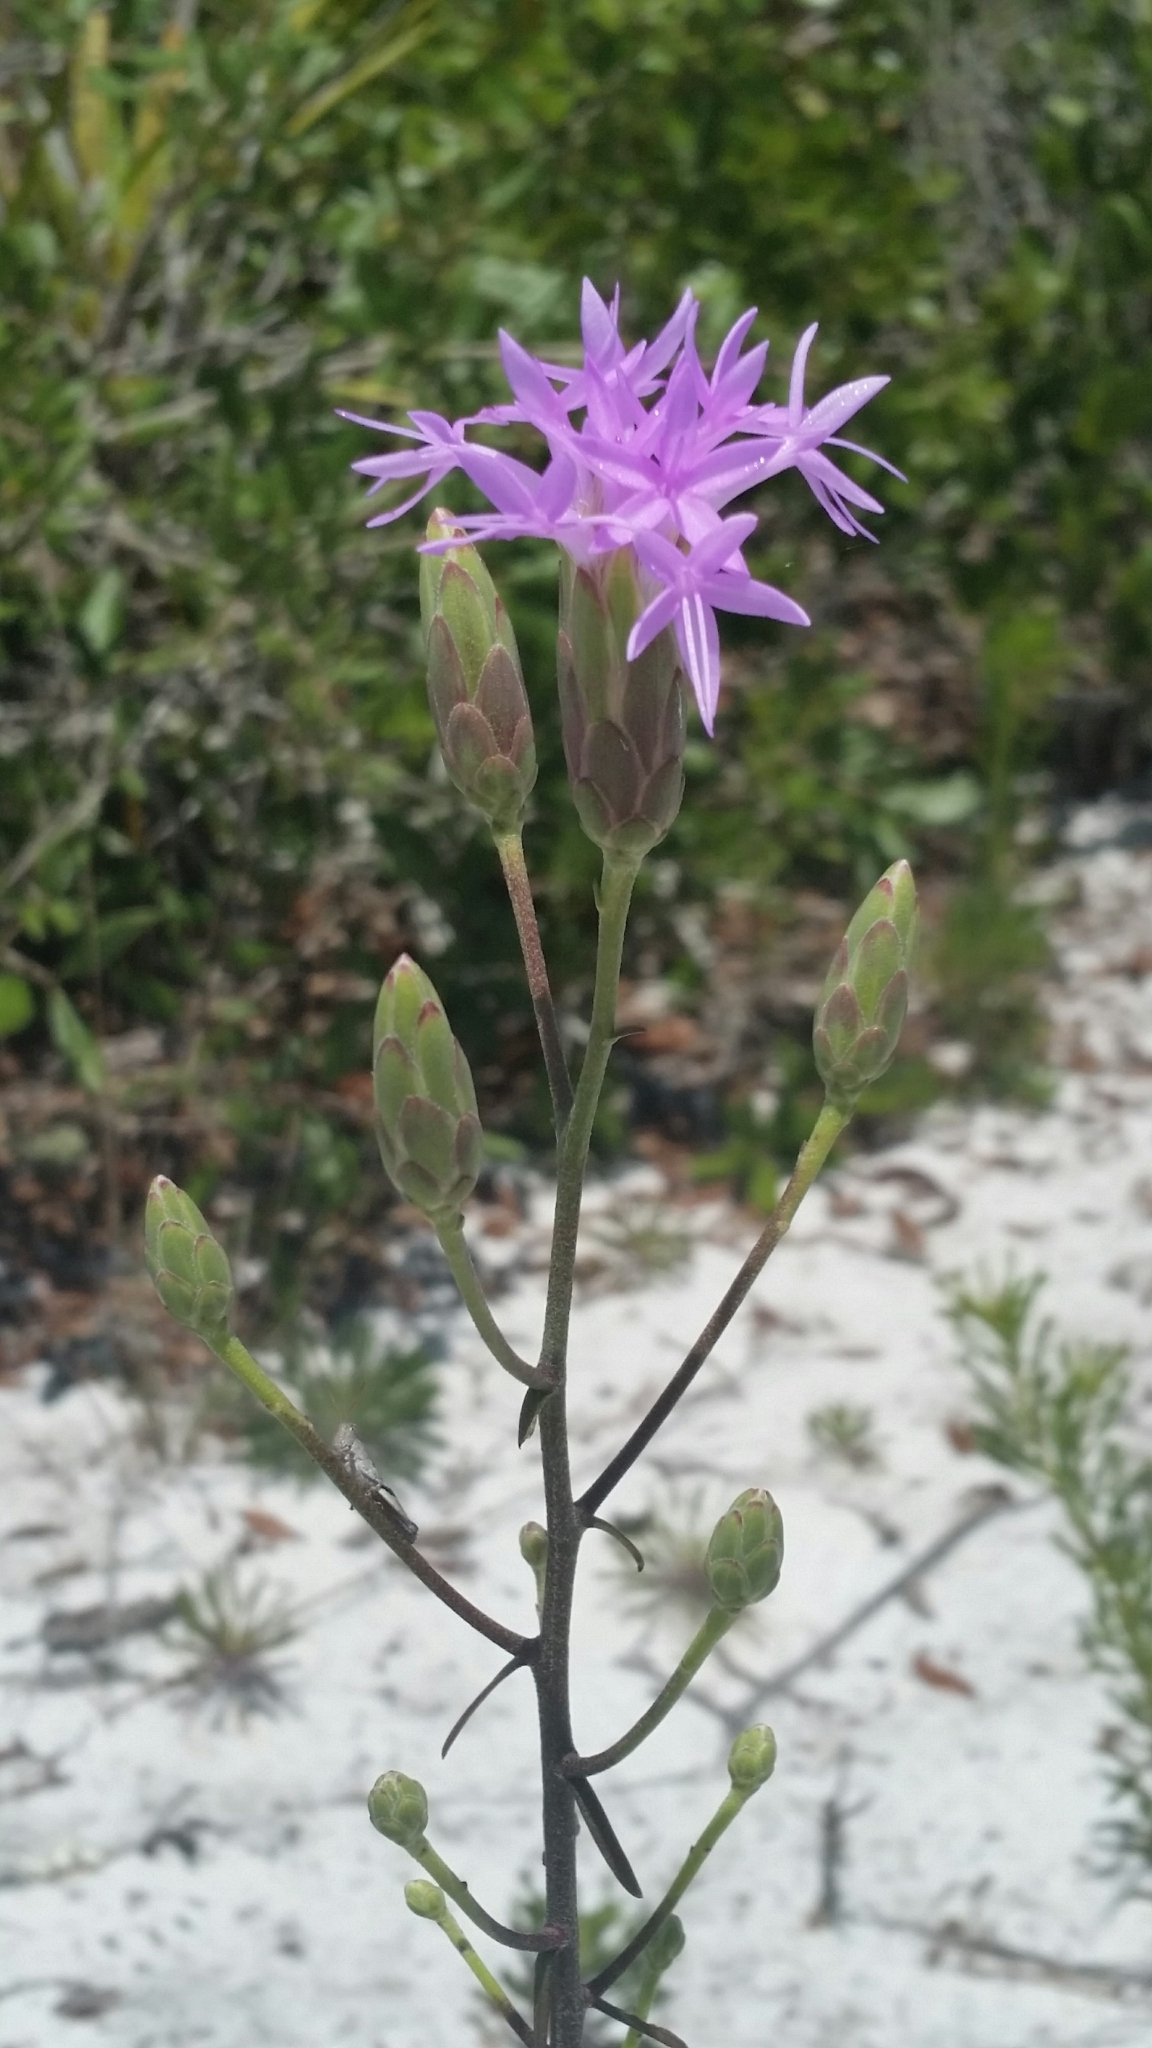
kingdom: Plantae
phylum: Tracheophyta
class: Magnoliopsida
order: Asterales
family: Asteraceae
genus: Liatris
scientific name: Liatris ohlingerae
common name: Scrub blazingstar
